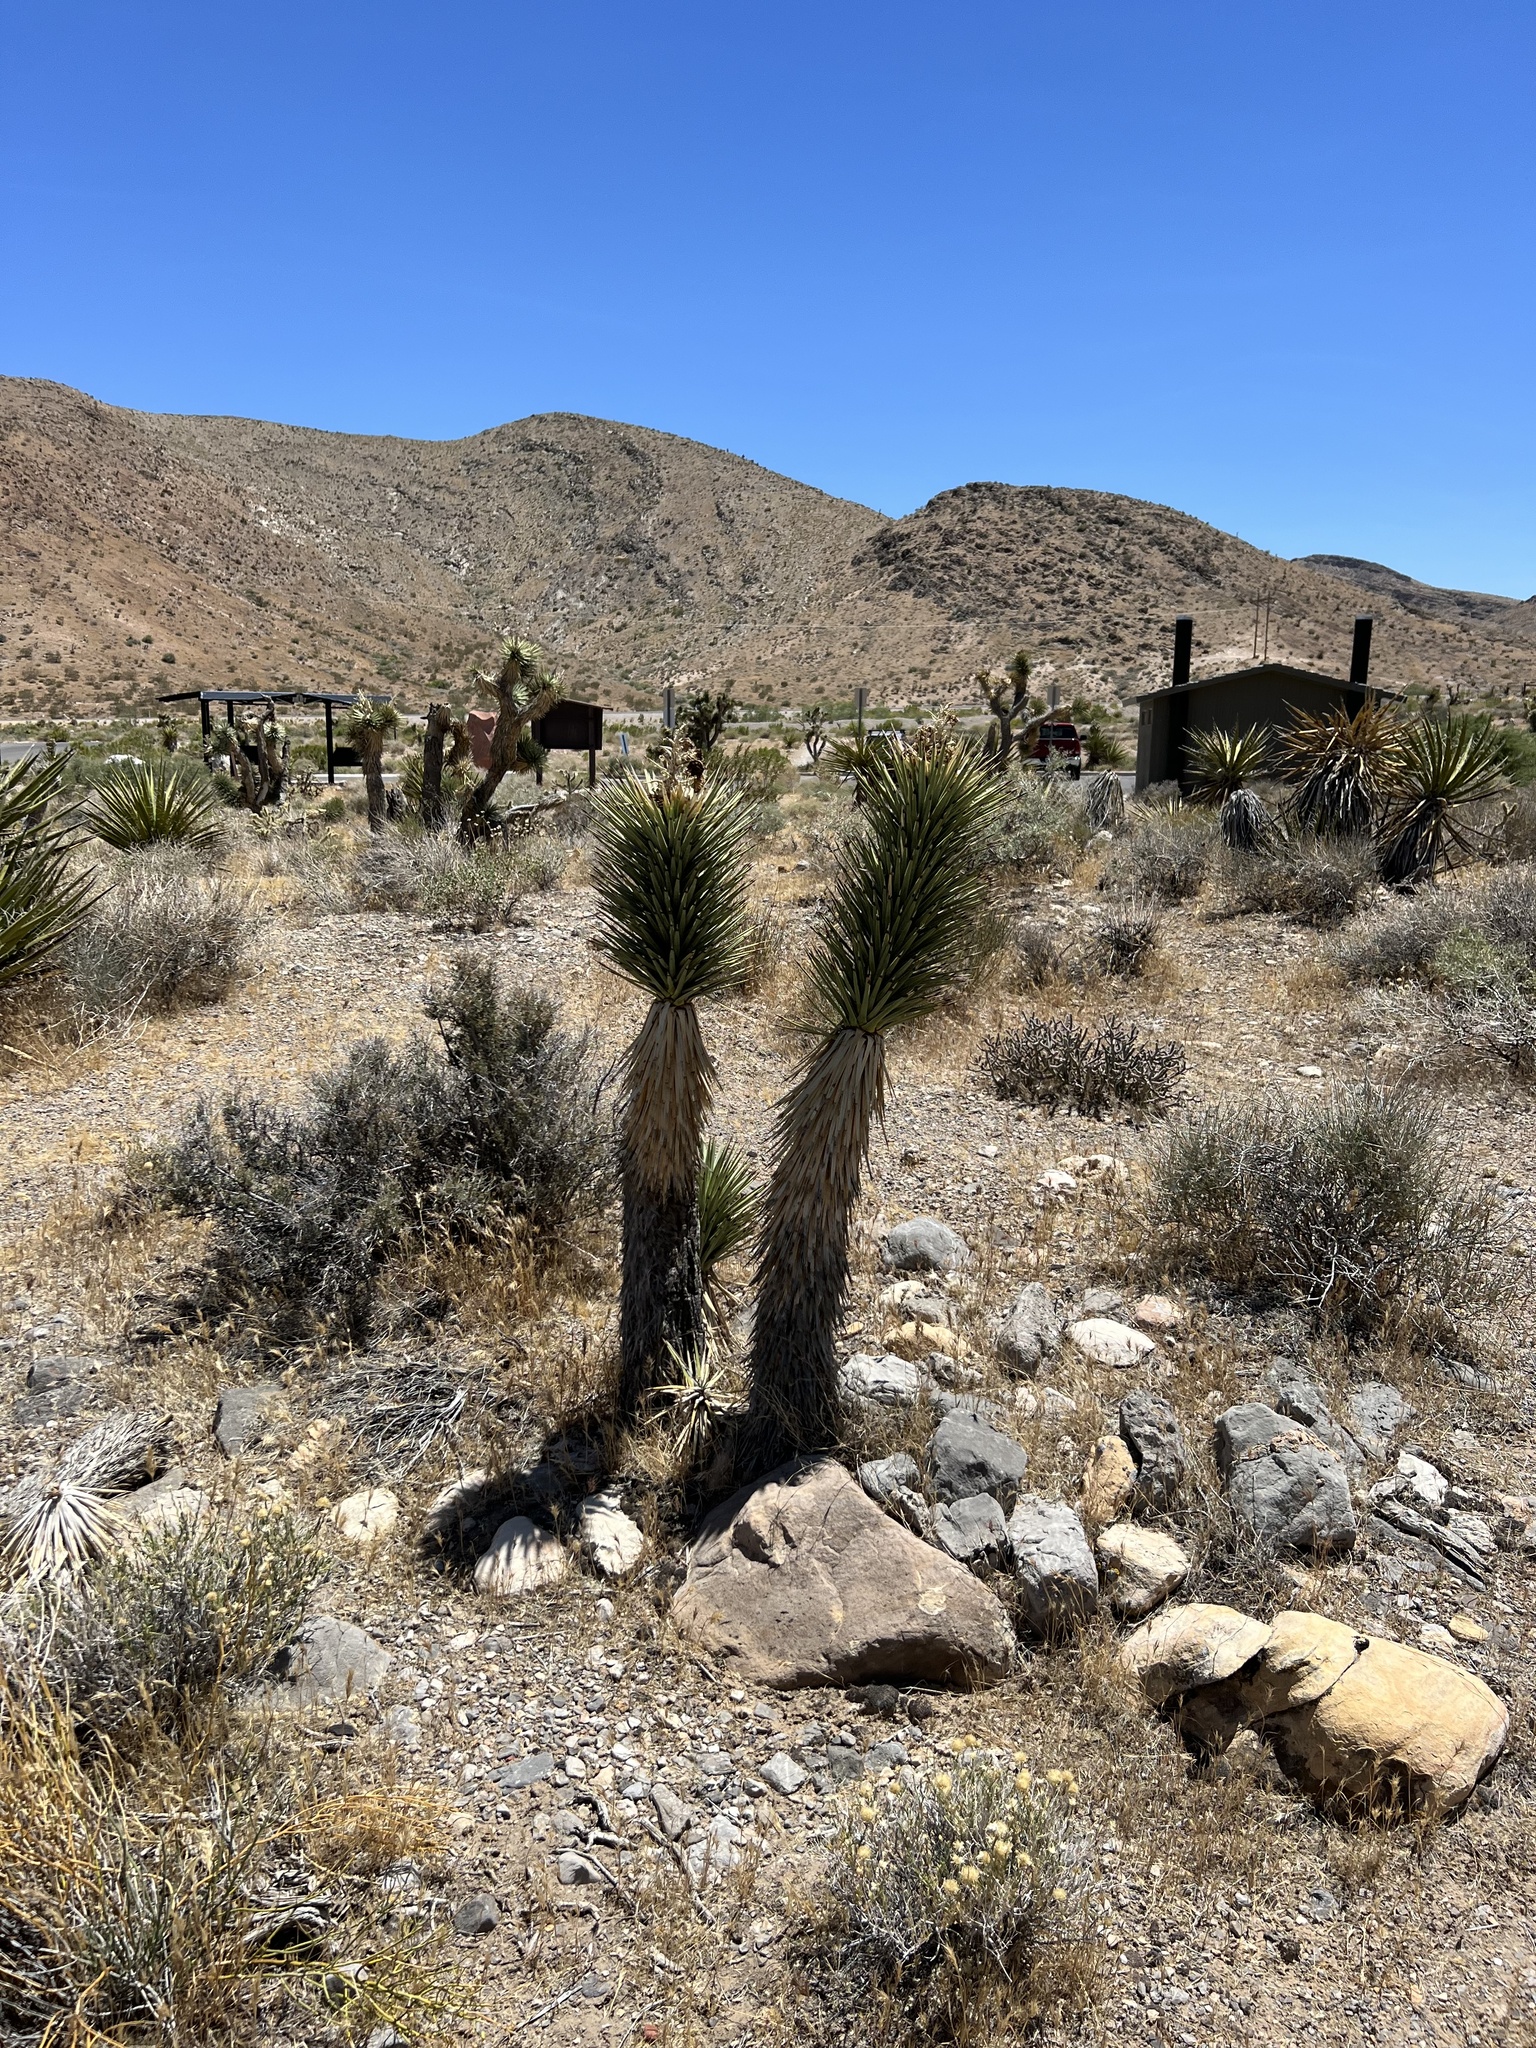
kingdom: Plantae
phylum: Tracheophyta
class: Liliopsida
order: Asparagales
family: Asparagaceae
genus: Yucca
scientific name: Yucca brevifolia
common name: Joshua tree
